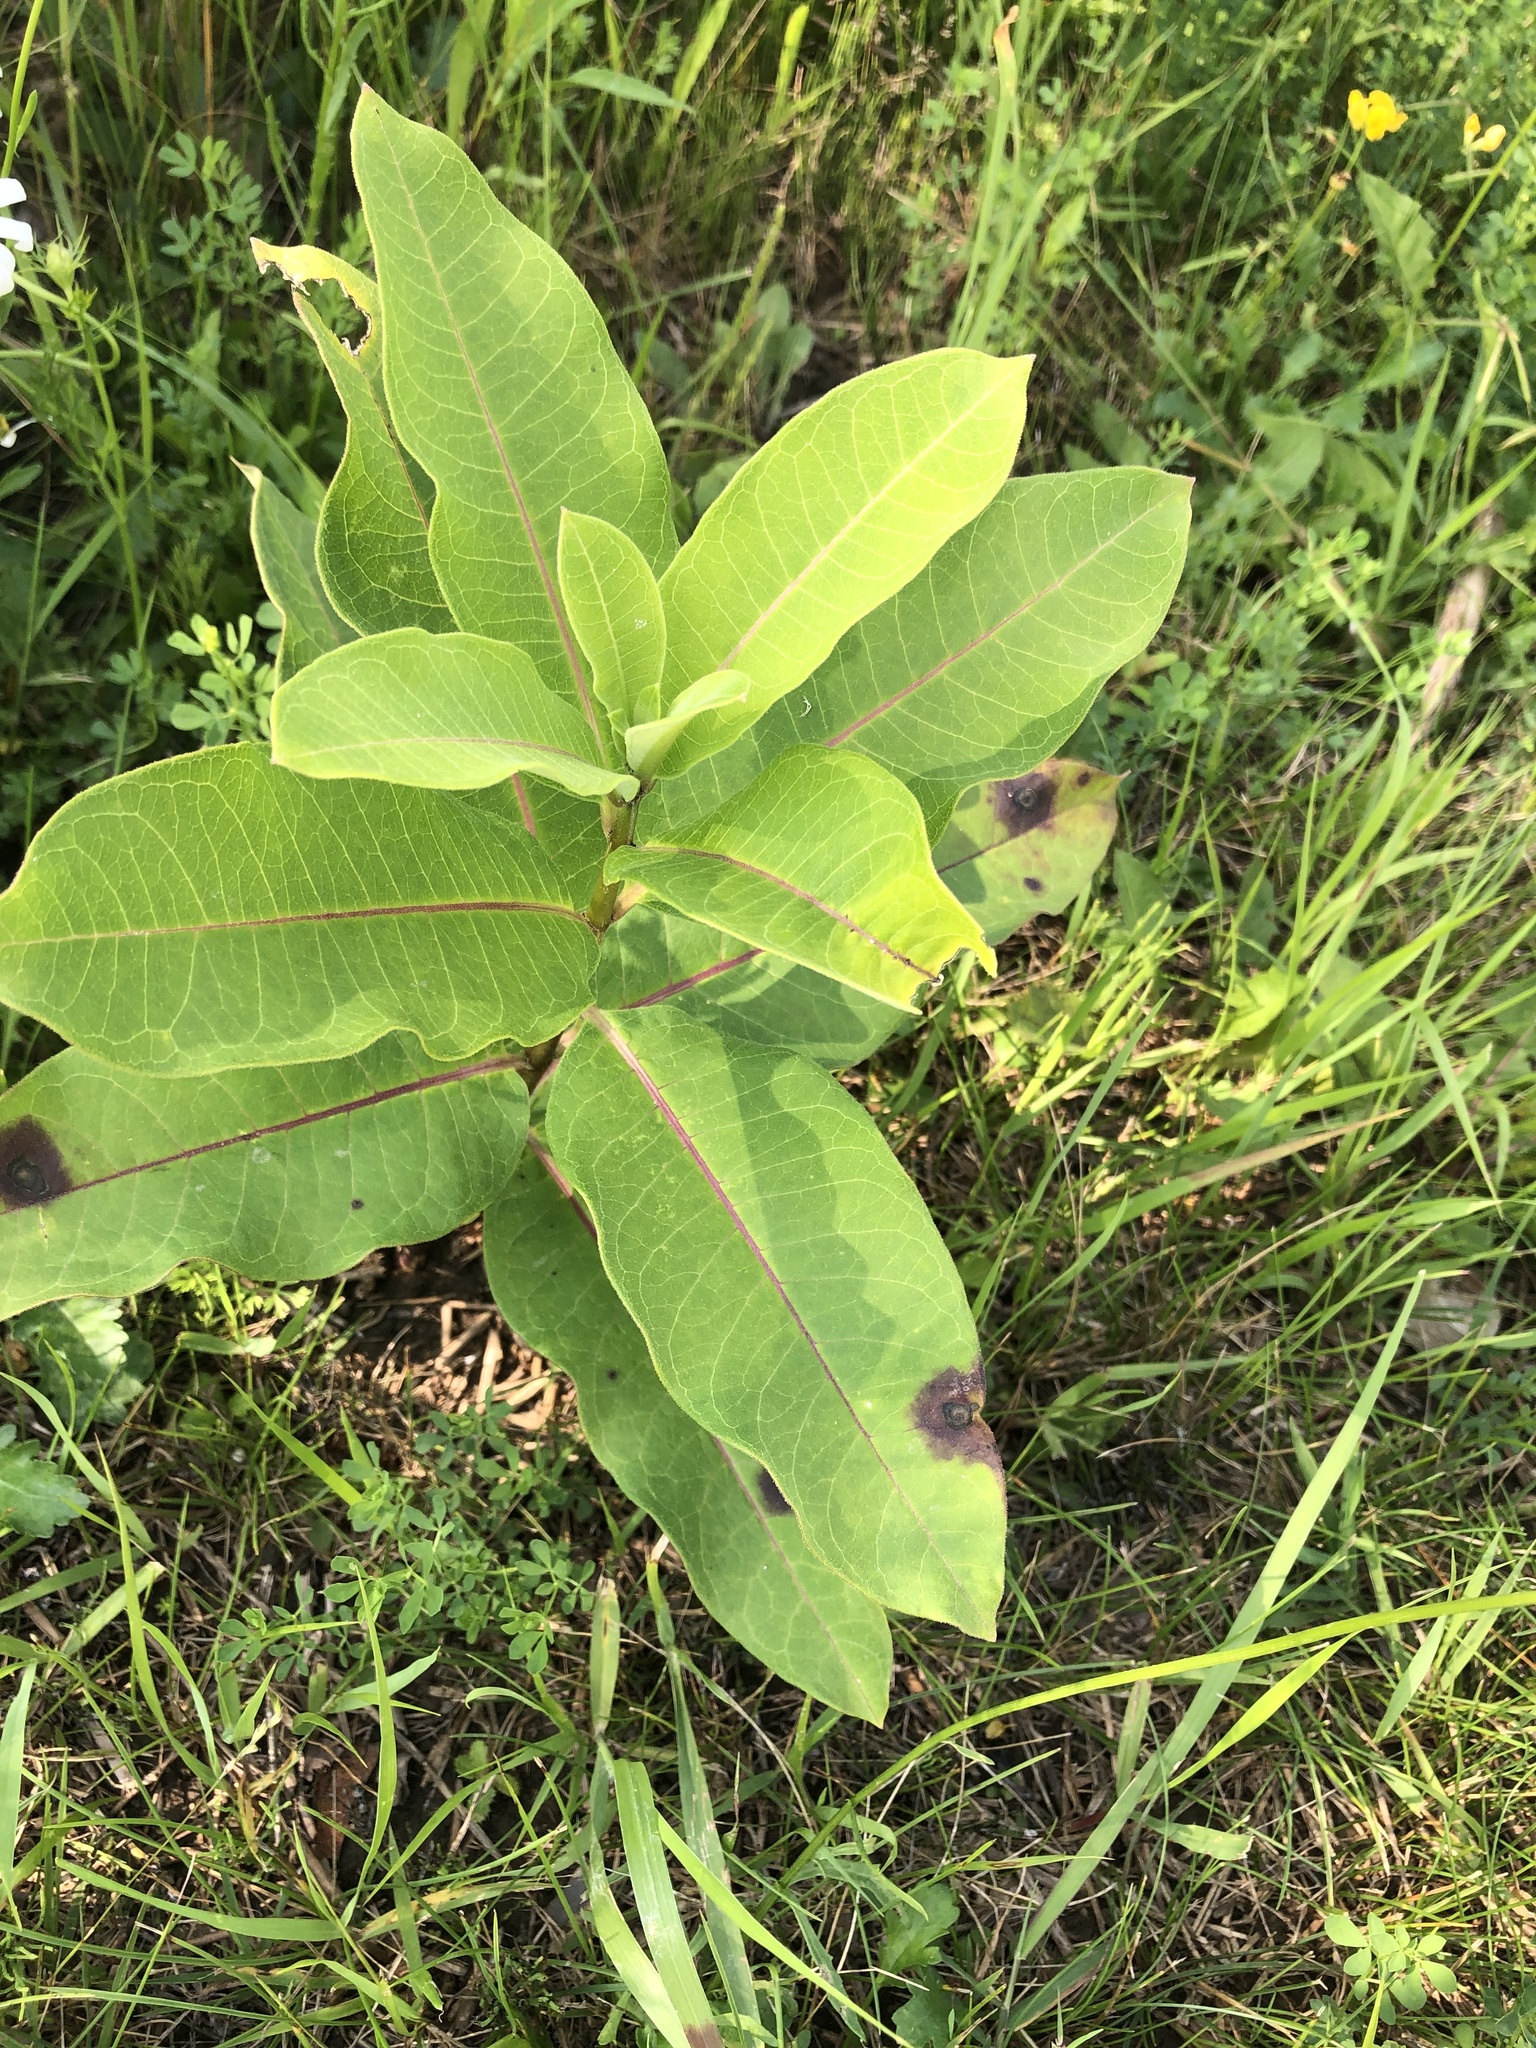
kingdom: Plantae
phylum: Tracheophyta
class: Magnoliopsida
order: Gentianales
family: Apocynaceae
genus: Asclepias
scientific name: Asclepias syriaca
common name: Common milkweed
